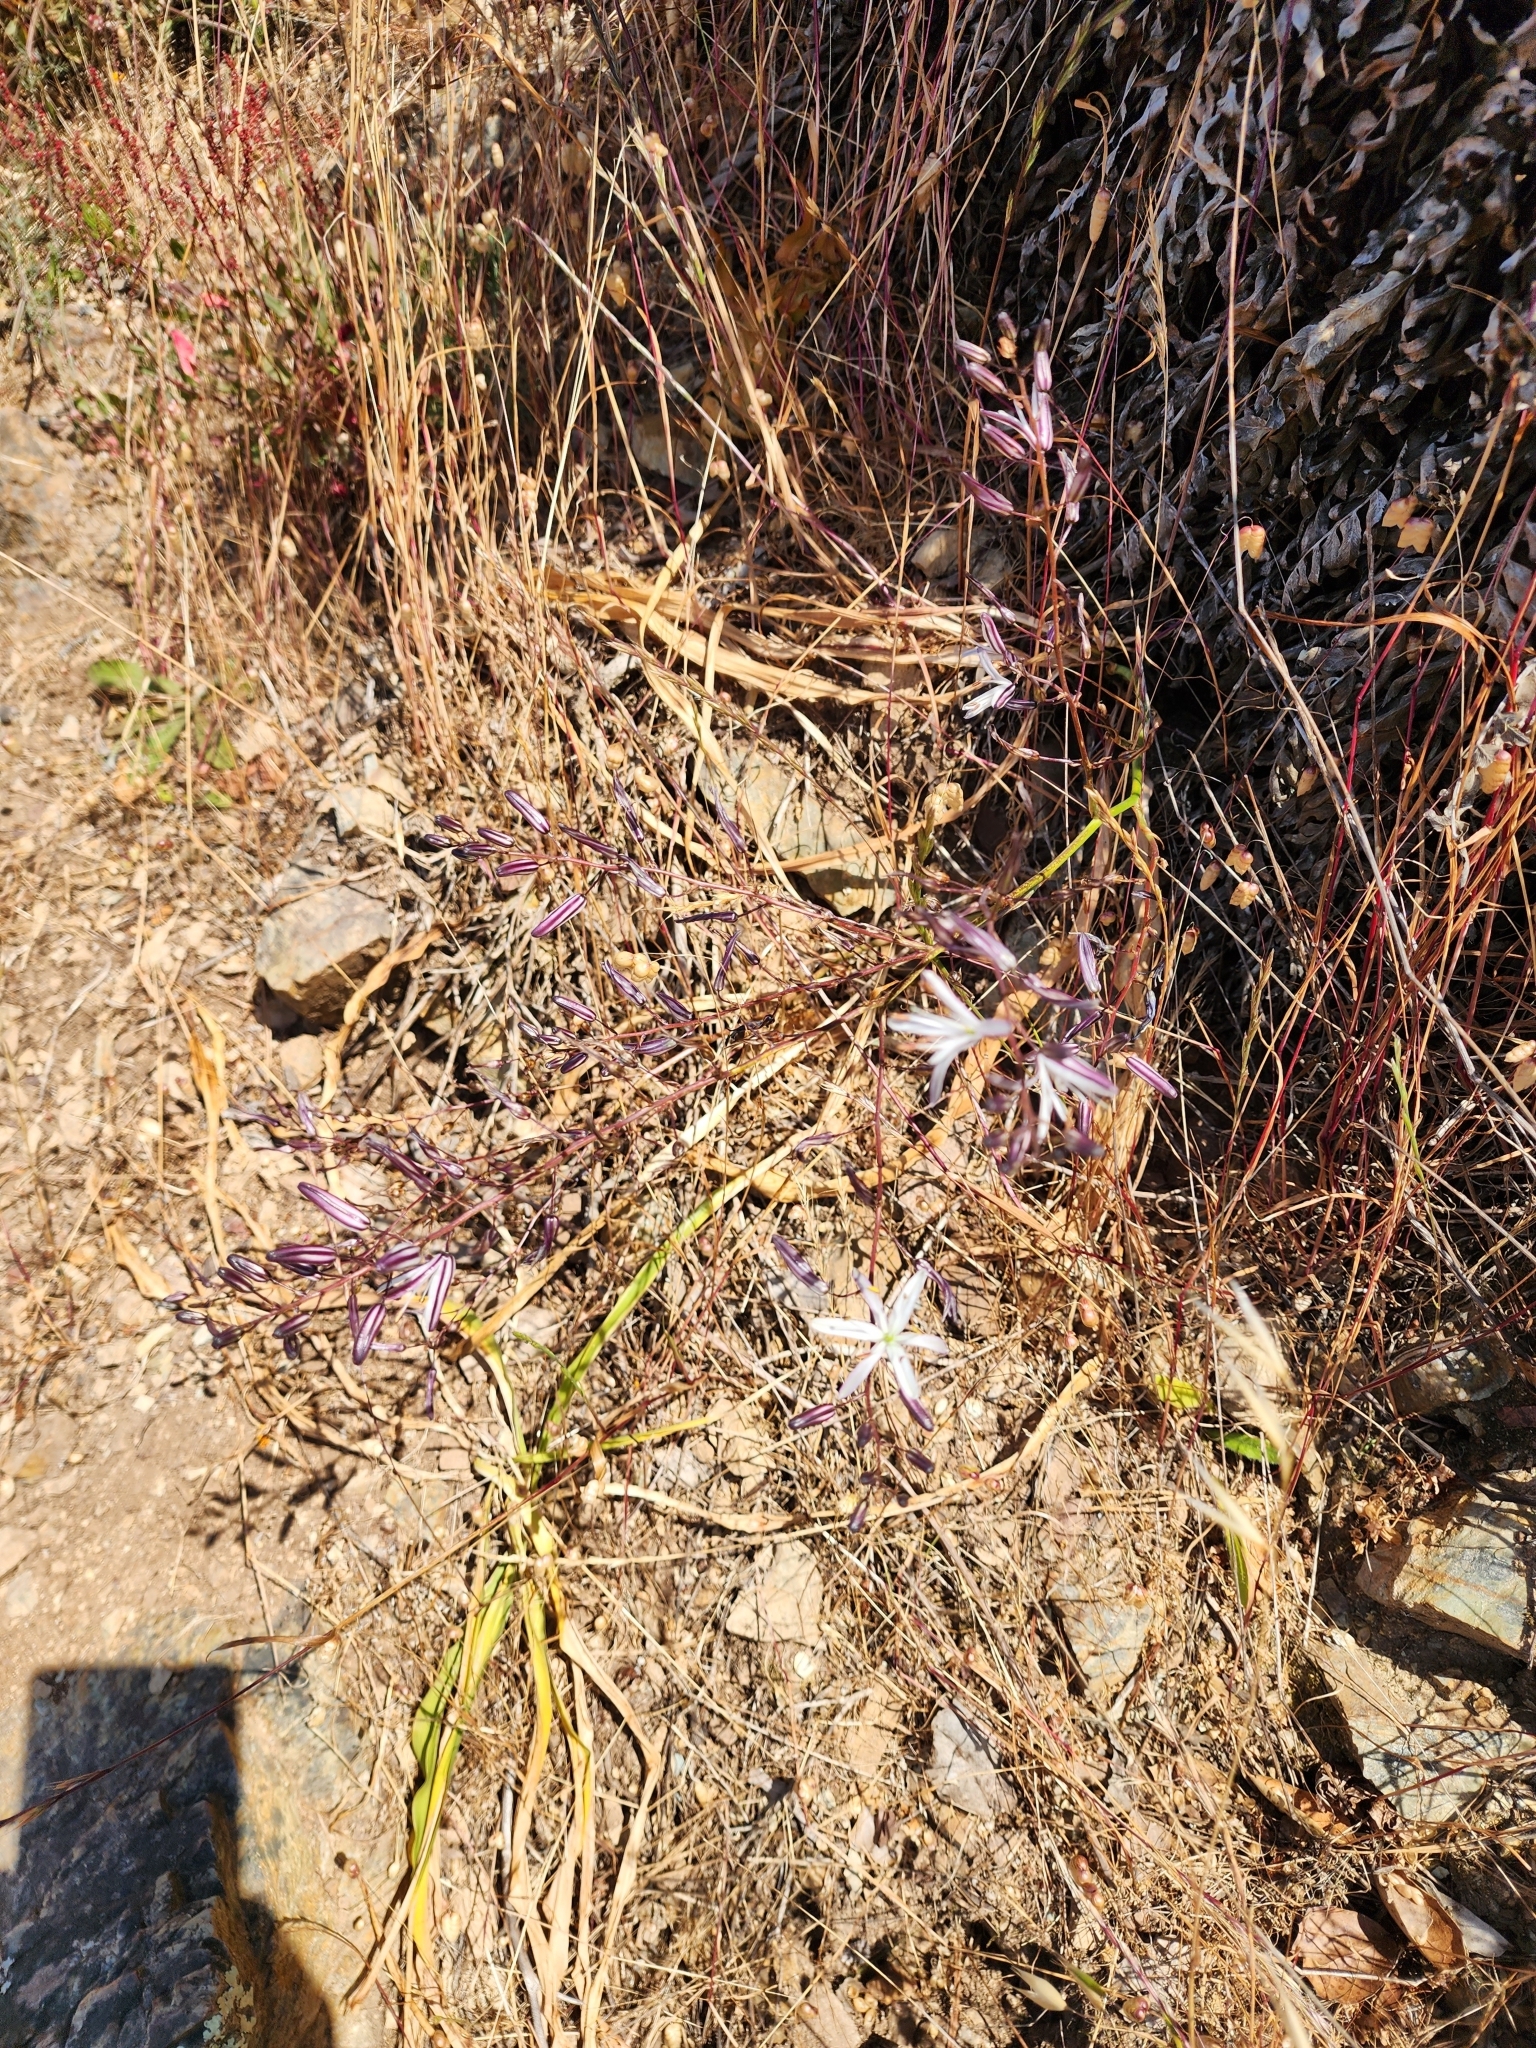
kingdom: Plantae
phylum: Tracheophyta
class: Liliopsida
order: Asparagales
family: Asparagaceae
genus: Chlorogalum
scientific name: Chlorogalum pomeridianum
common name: Amole
